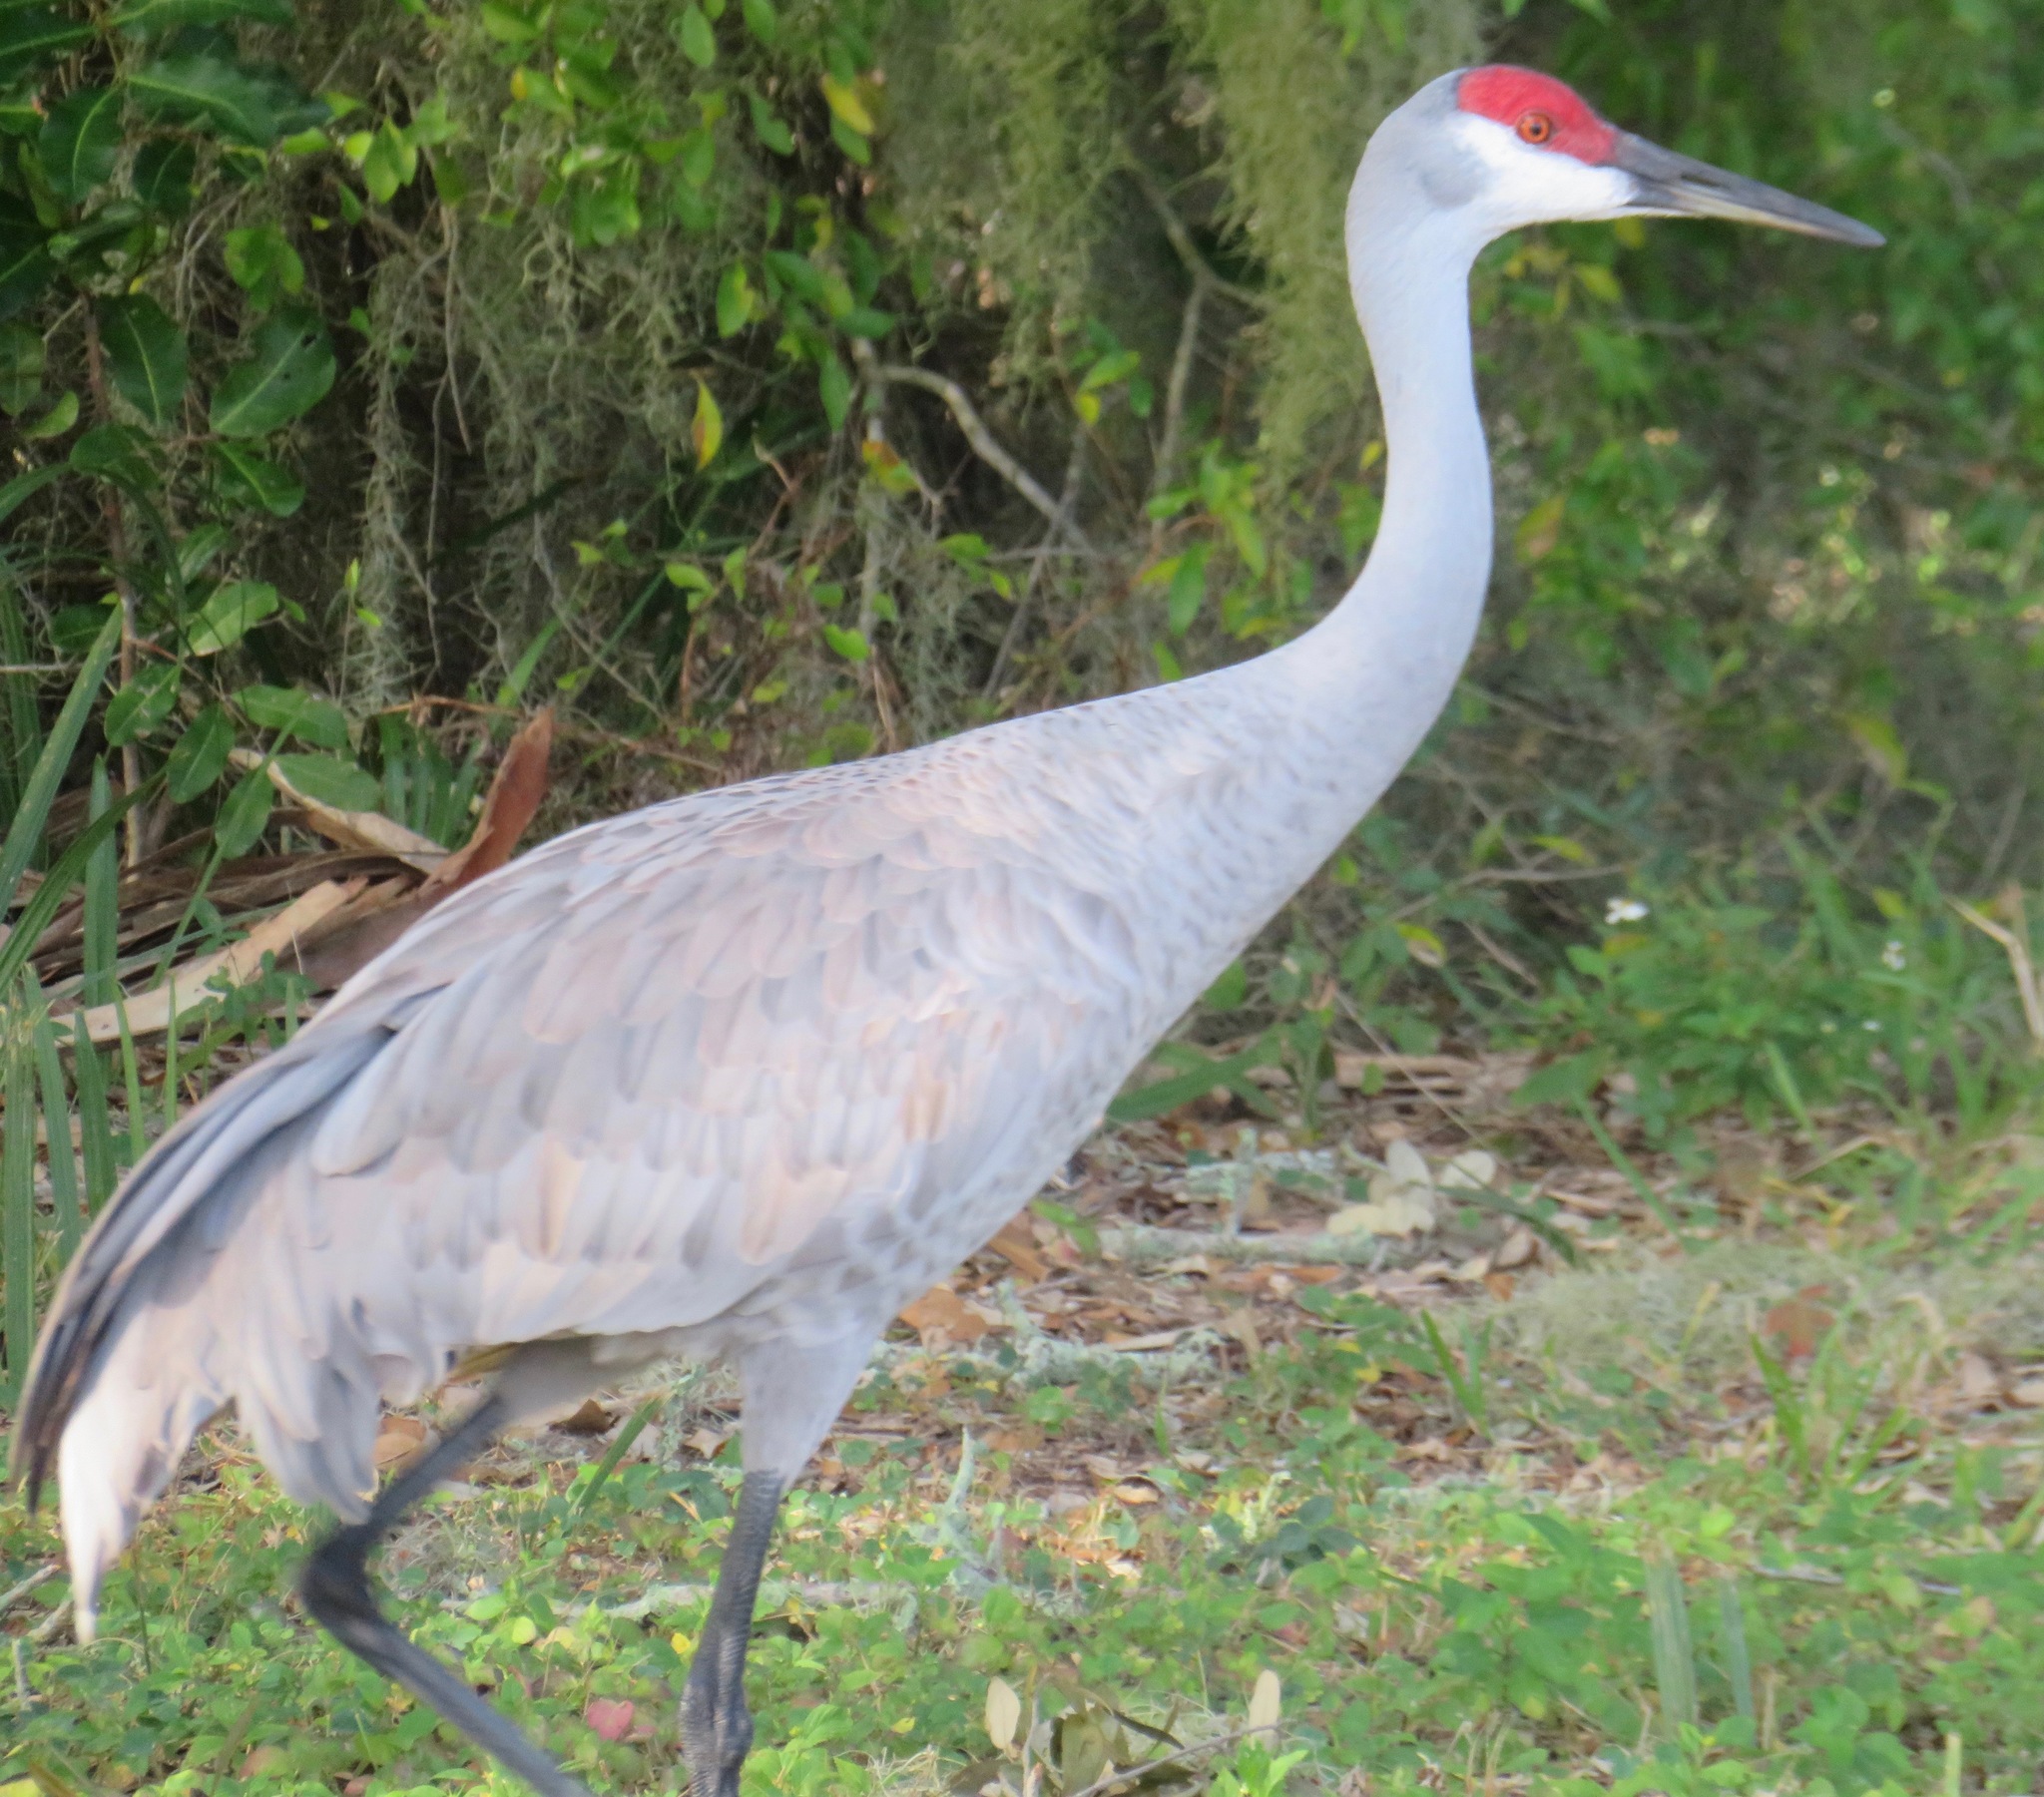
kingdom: Animalia
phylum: Chordata
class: Aves
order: Gruiformes
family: Gruidae
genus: Grus
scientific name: Grus canadensis
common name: Sandhill crane
